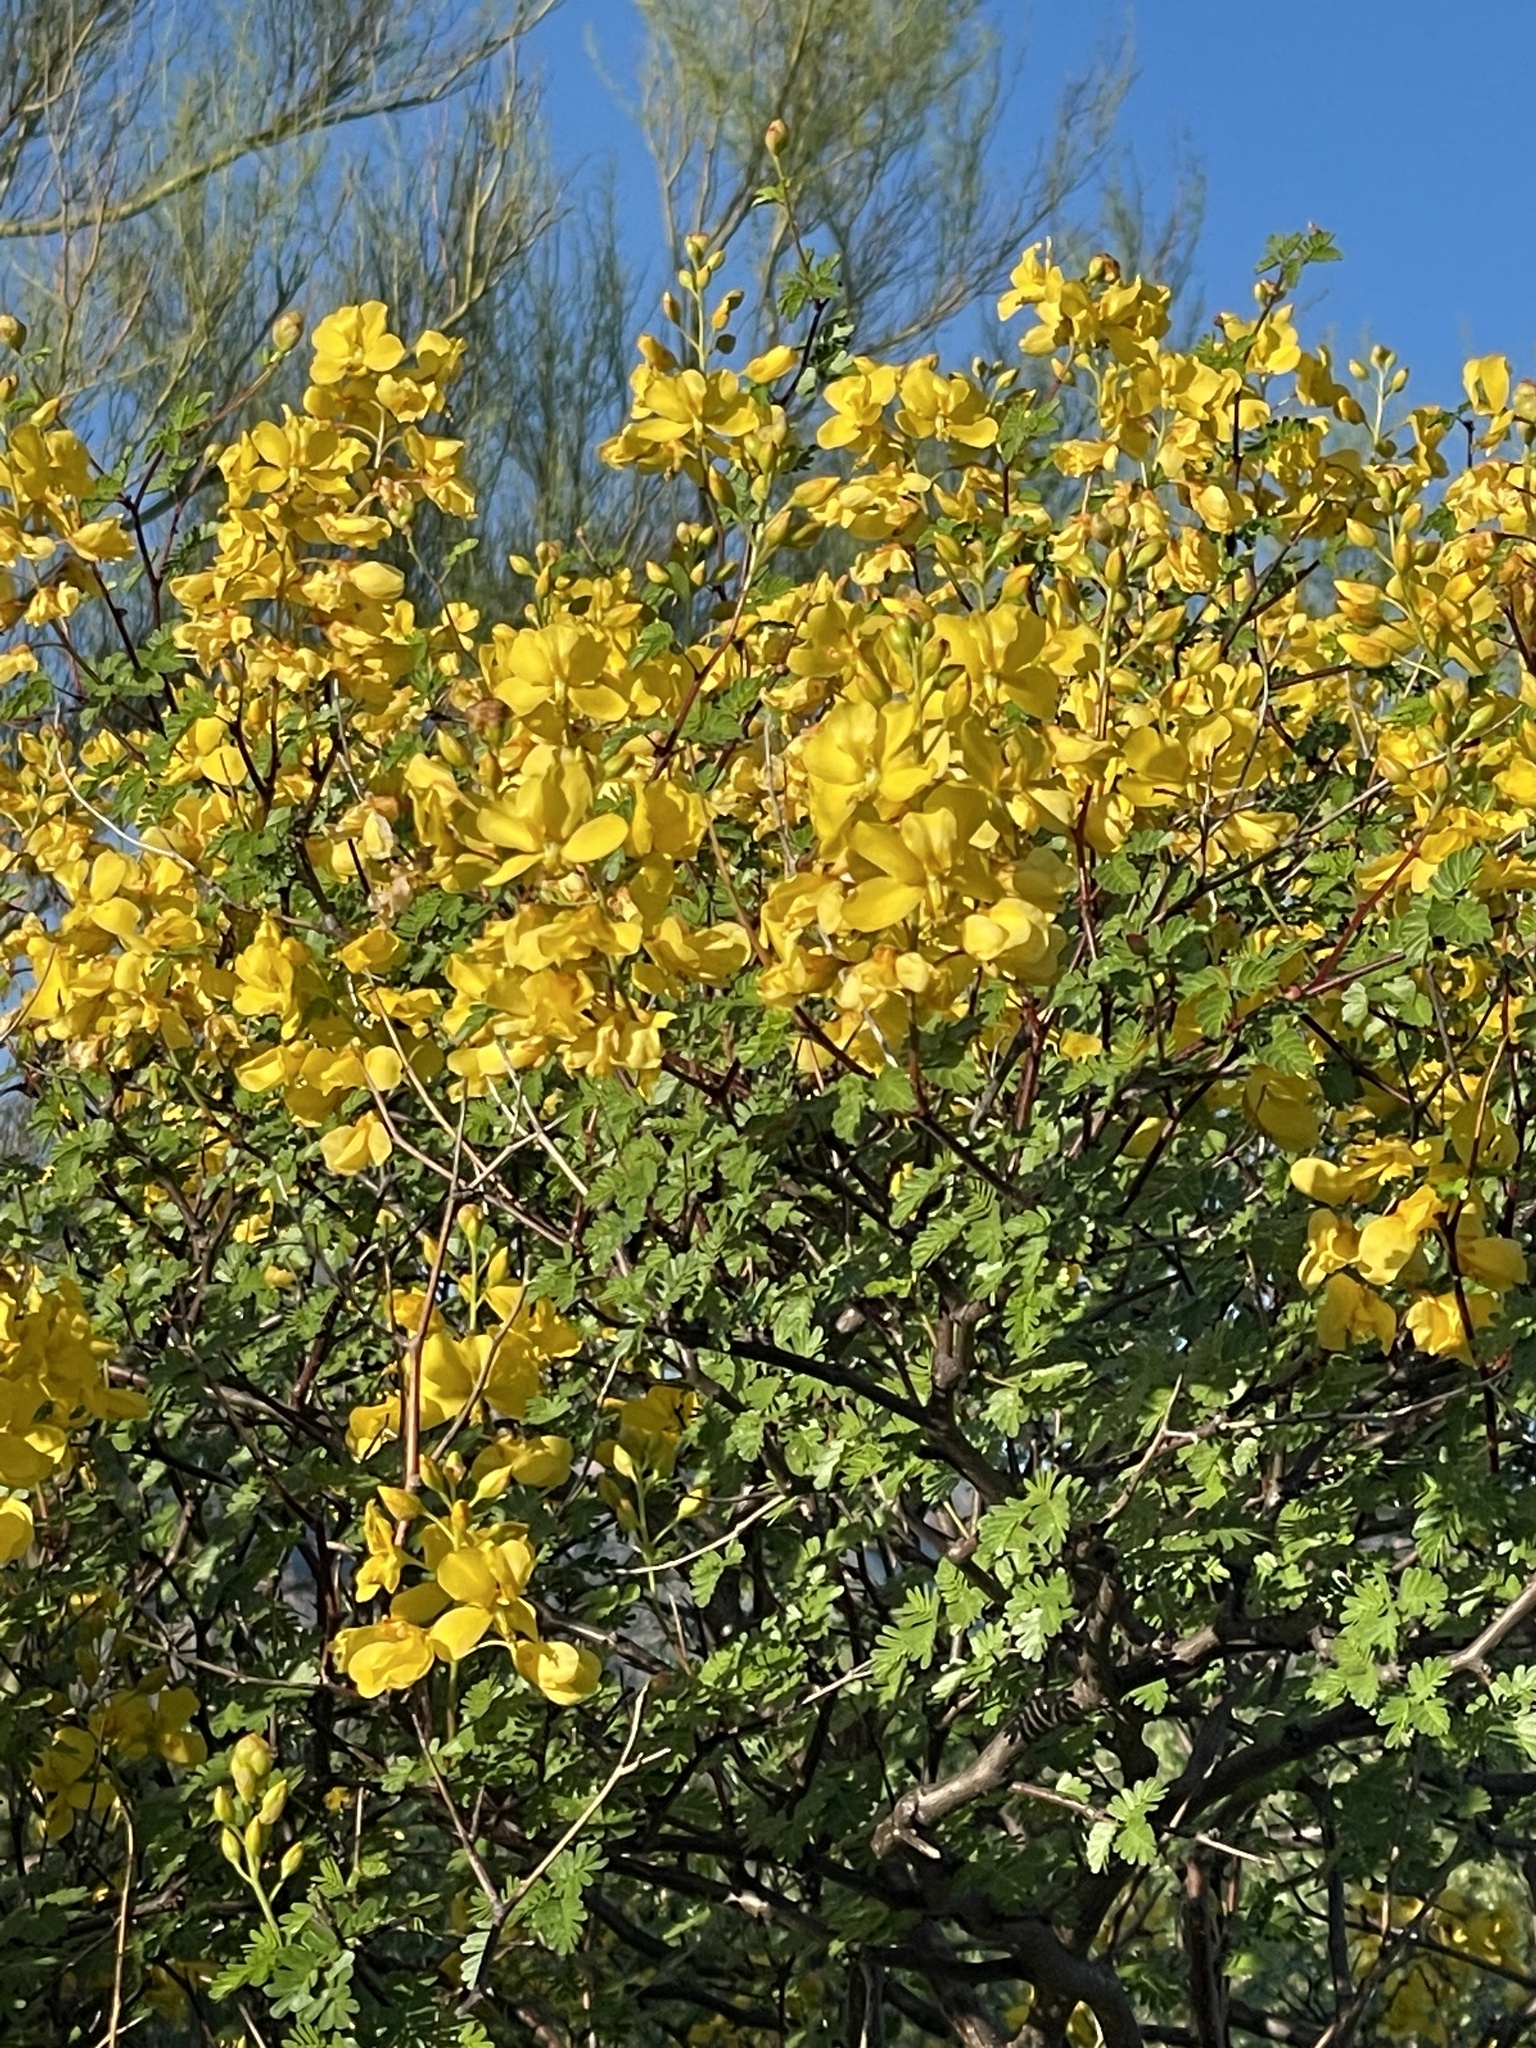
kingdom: Plantae
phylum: Tracheophyta
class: Magnoliopsida
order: Fabales
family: Fabaceae
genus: Erythrostemon
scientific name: Erythrostemon pannosus
